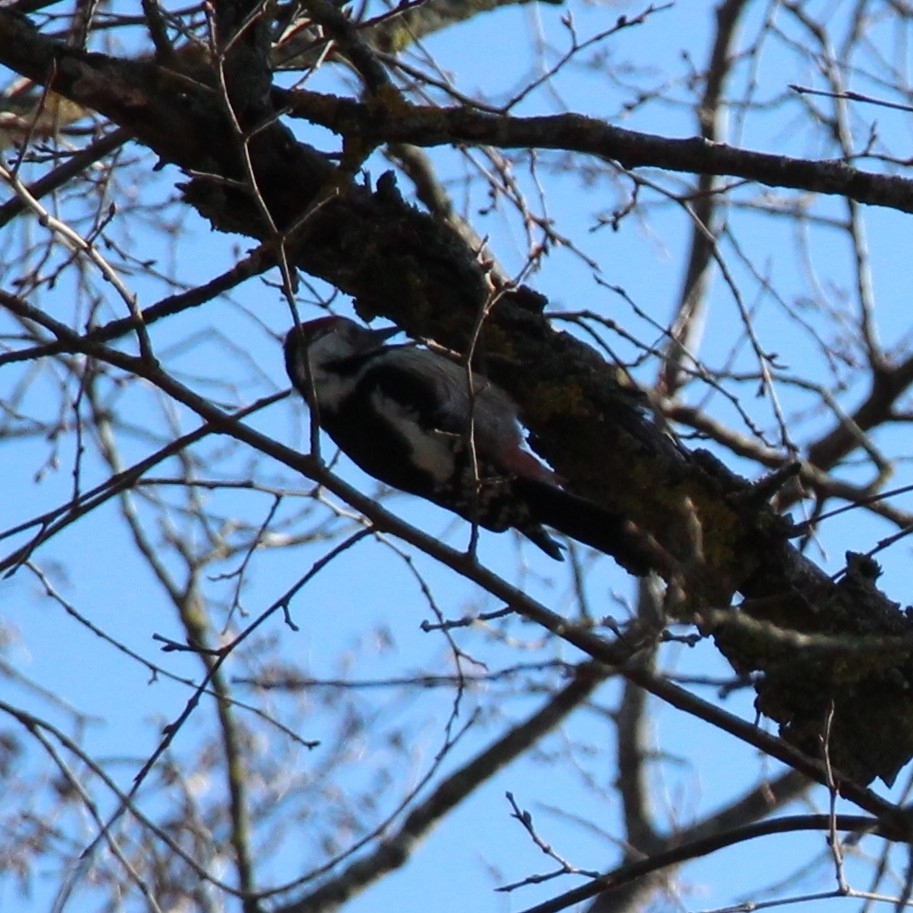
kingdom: Animalia
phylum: Chordata
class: Aves
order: Piciformes
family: Picidae
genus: Dendrocoptes
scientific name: Dendrocoptes medius
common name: Middle spotted woodpecker
